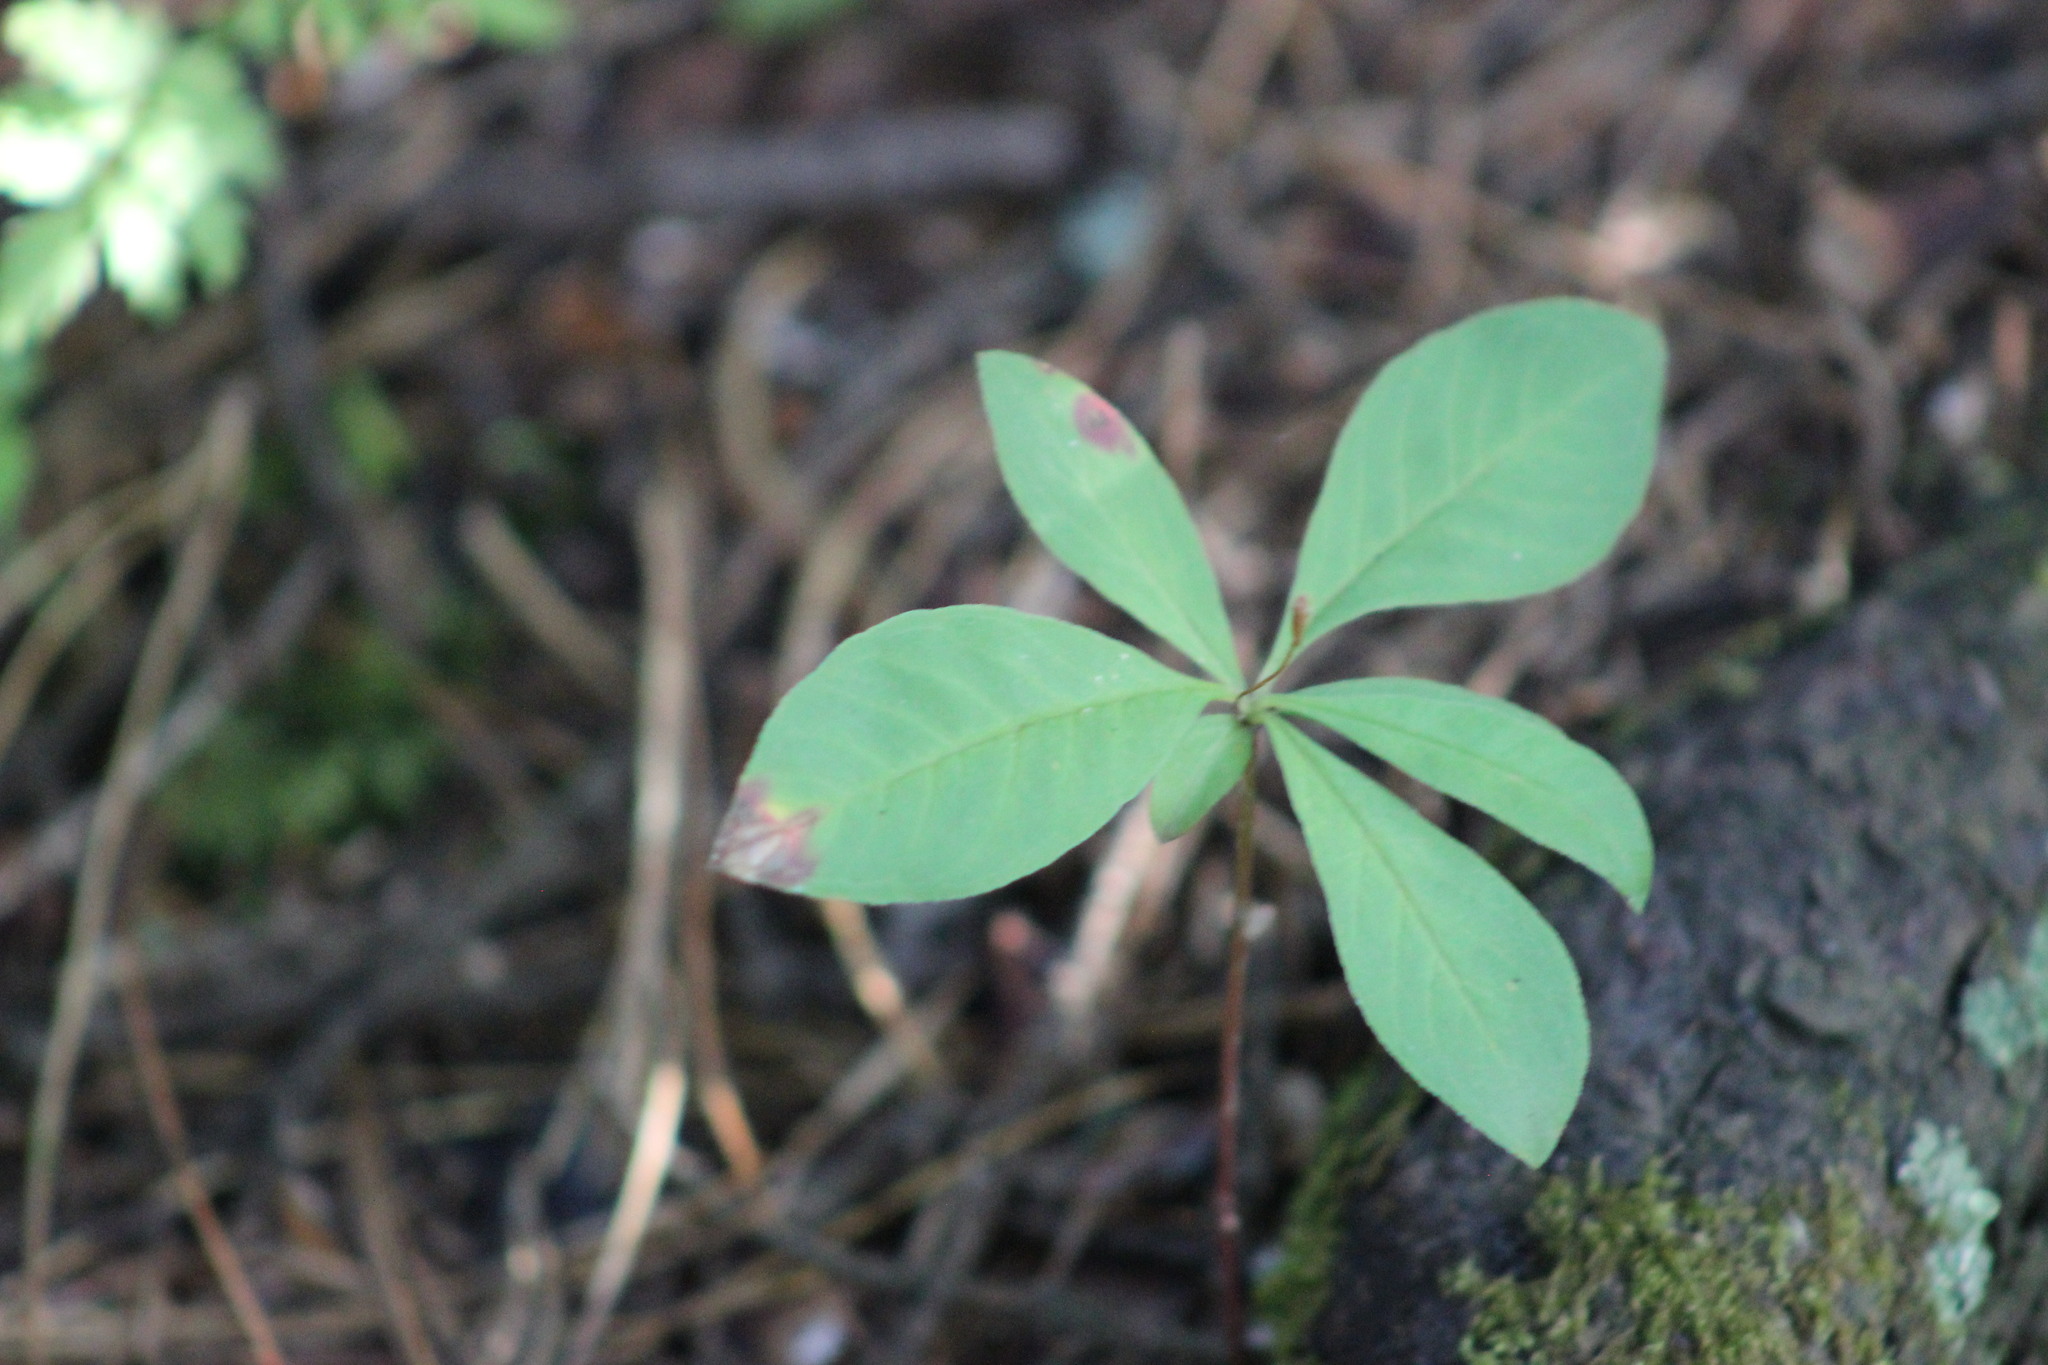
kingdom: Plantae
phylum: Tracheophyta
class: Magnoliopsida
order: Ericales
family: Primulaceae
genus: Lysimachia
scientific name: Lysimachia europaea
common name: Arctic starflower
